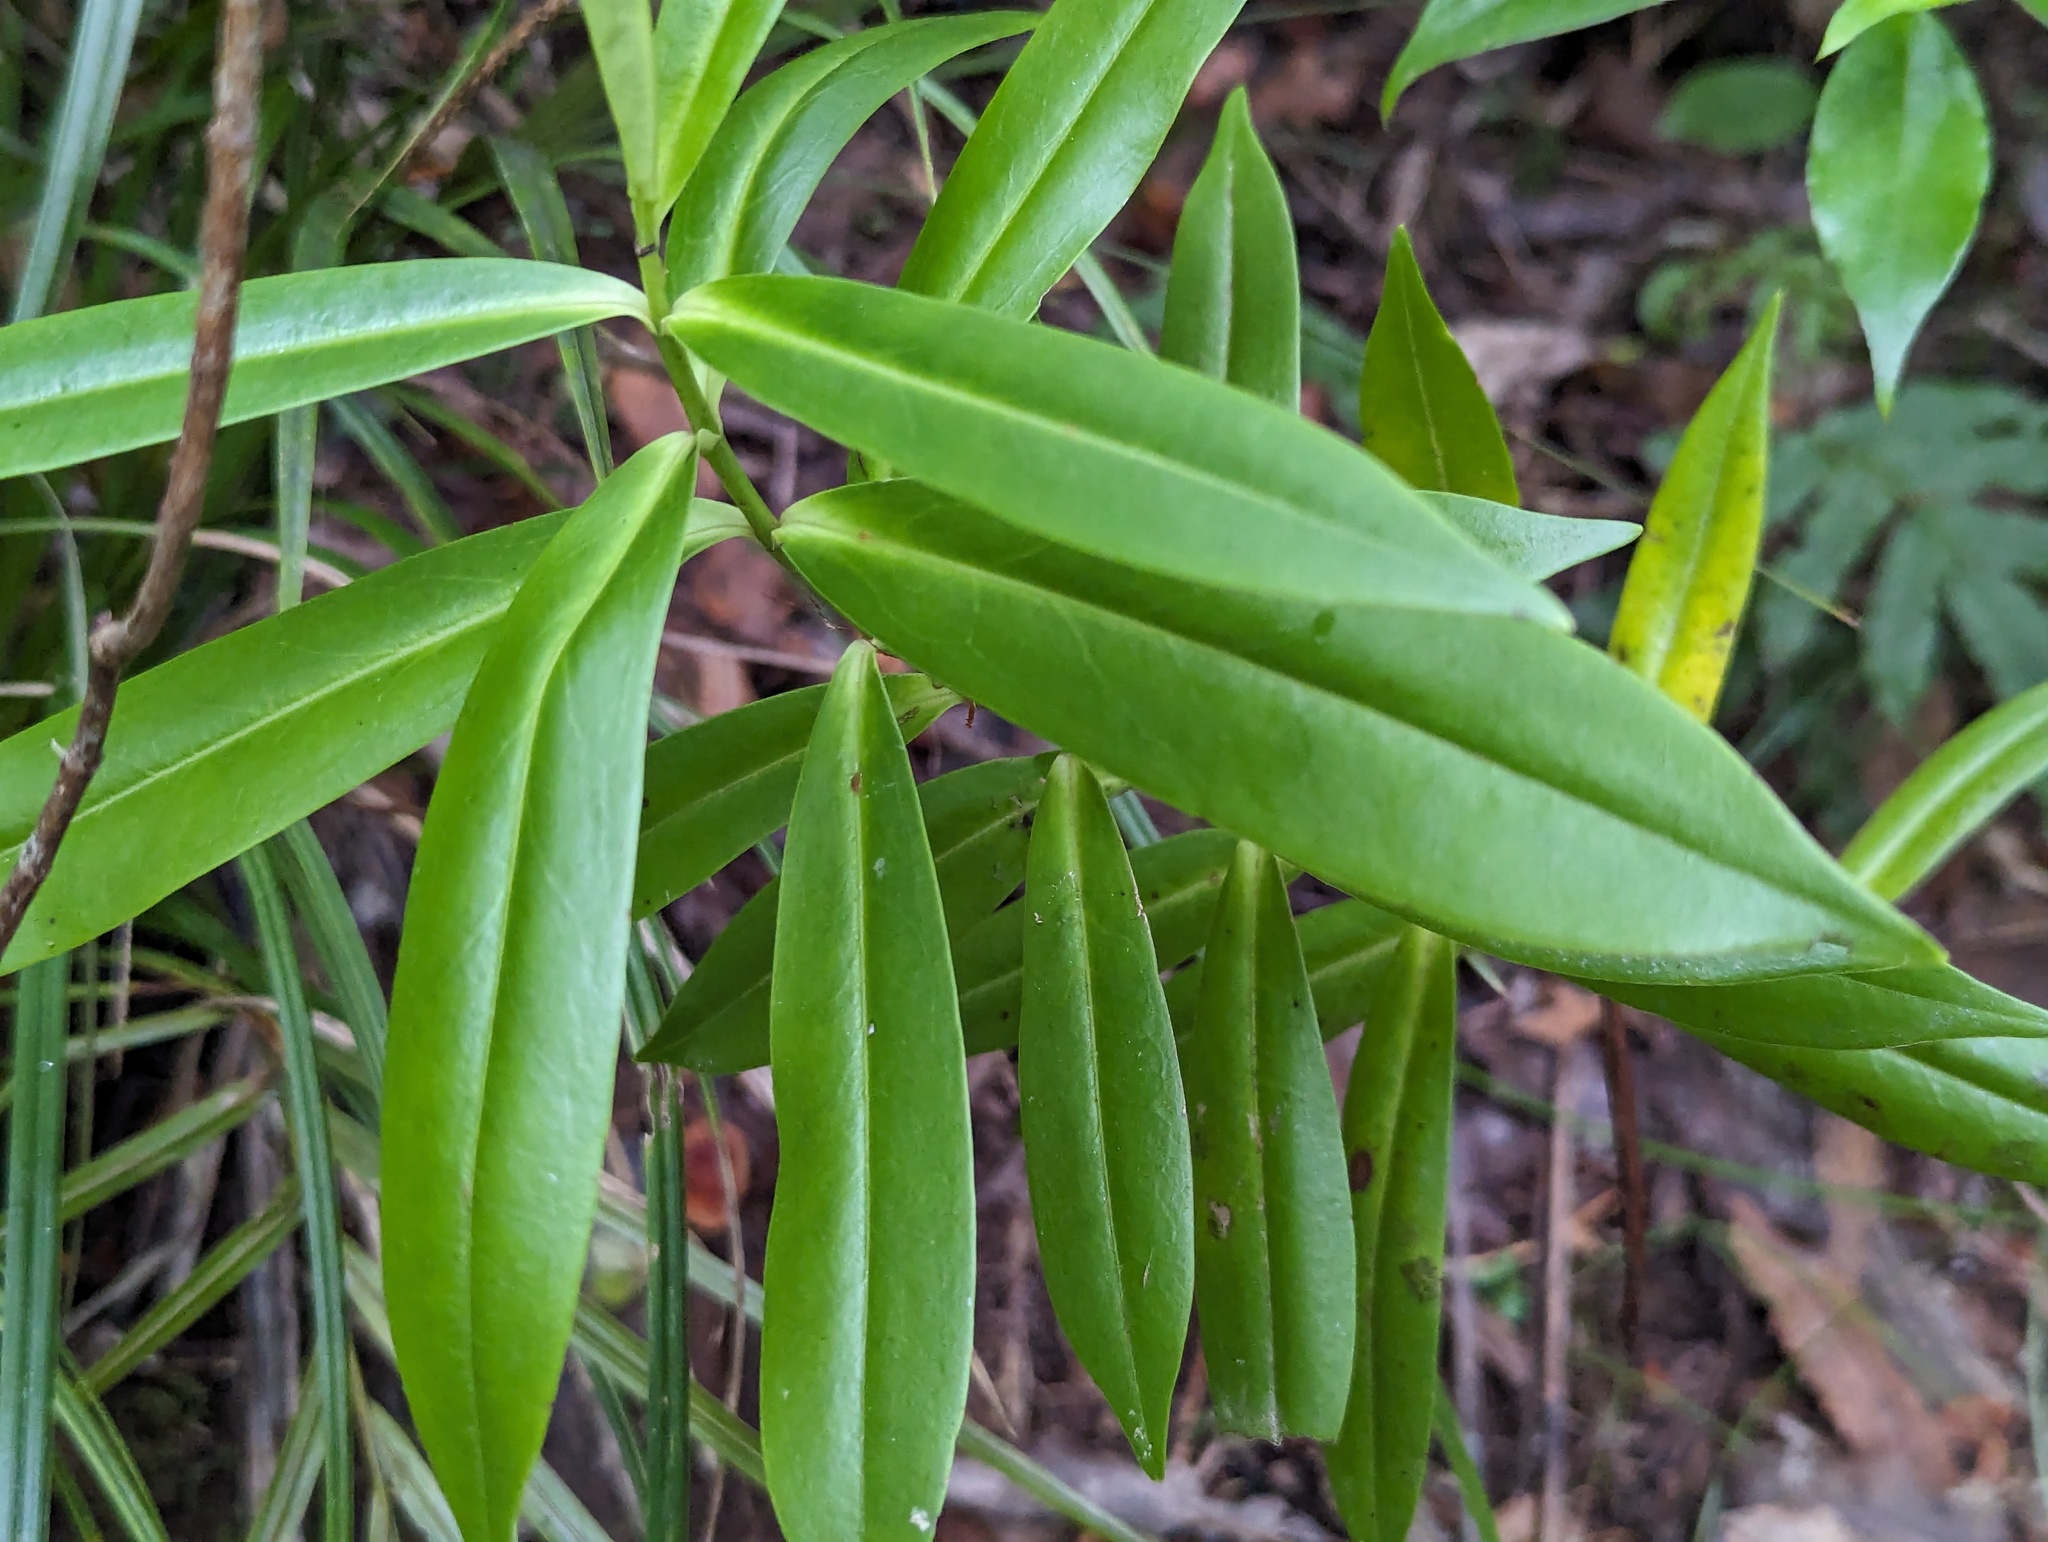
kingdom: Plantae
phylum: Tracheophyta
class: Magnoliopsida
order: Lamiales
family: Plantaginaceae
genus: Veronica
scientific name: Veronica macrocarpa
